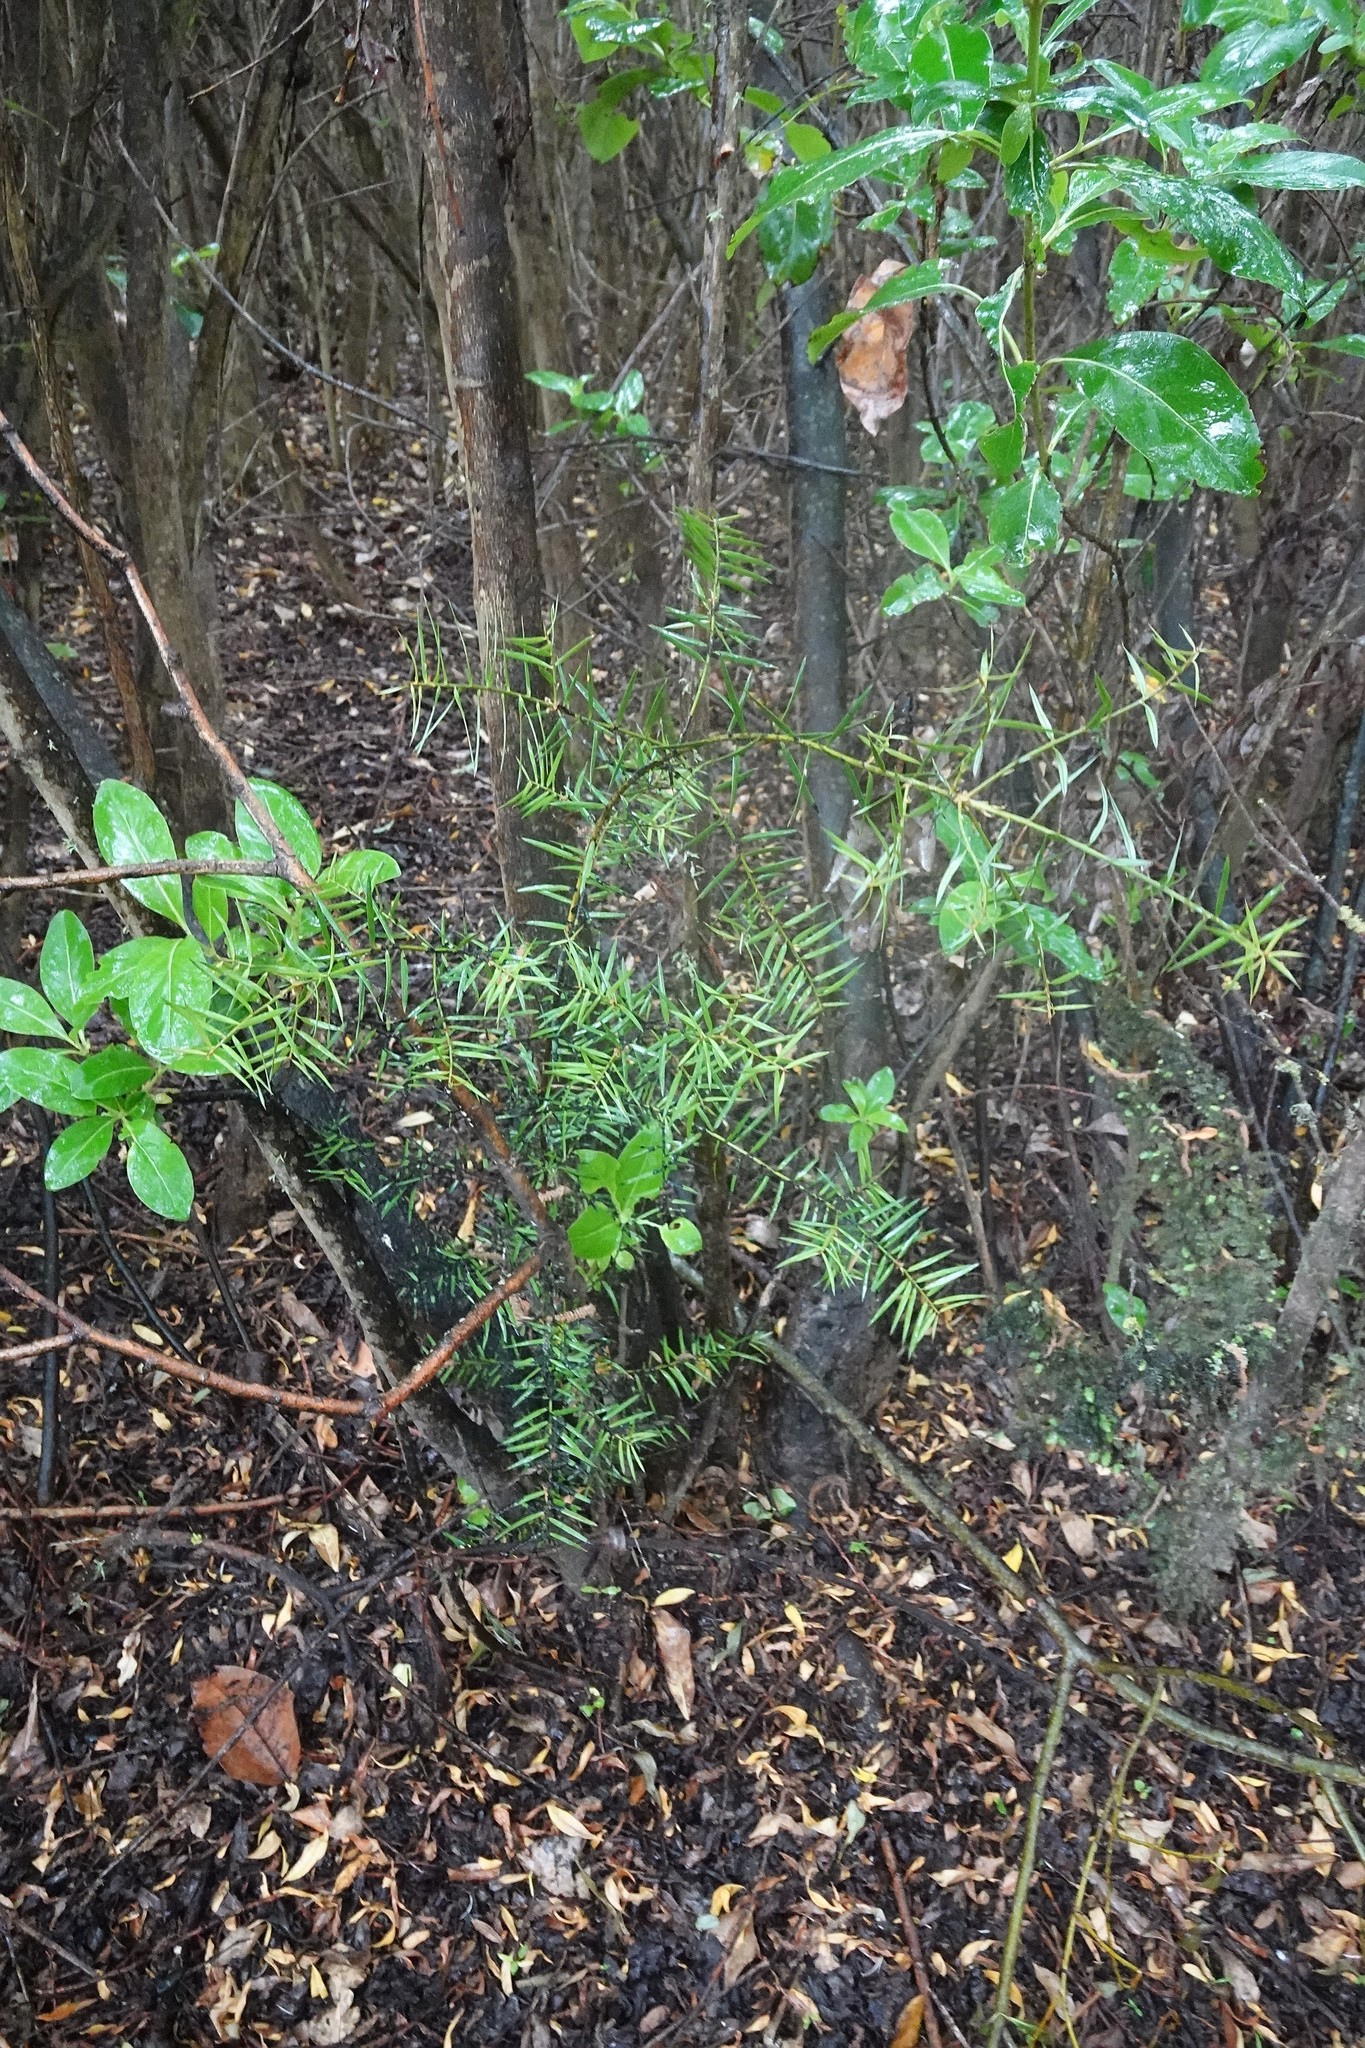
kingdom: Plantae
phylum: Tracheophyta
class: Pinopsida
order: Pinales
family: Podocarpaceae
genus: Podocarpus
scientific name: Podocarpus totara
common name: Totara
